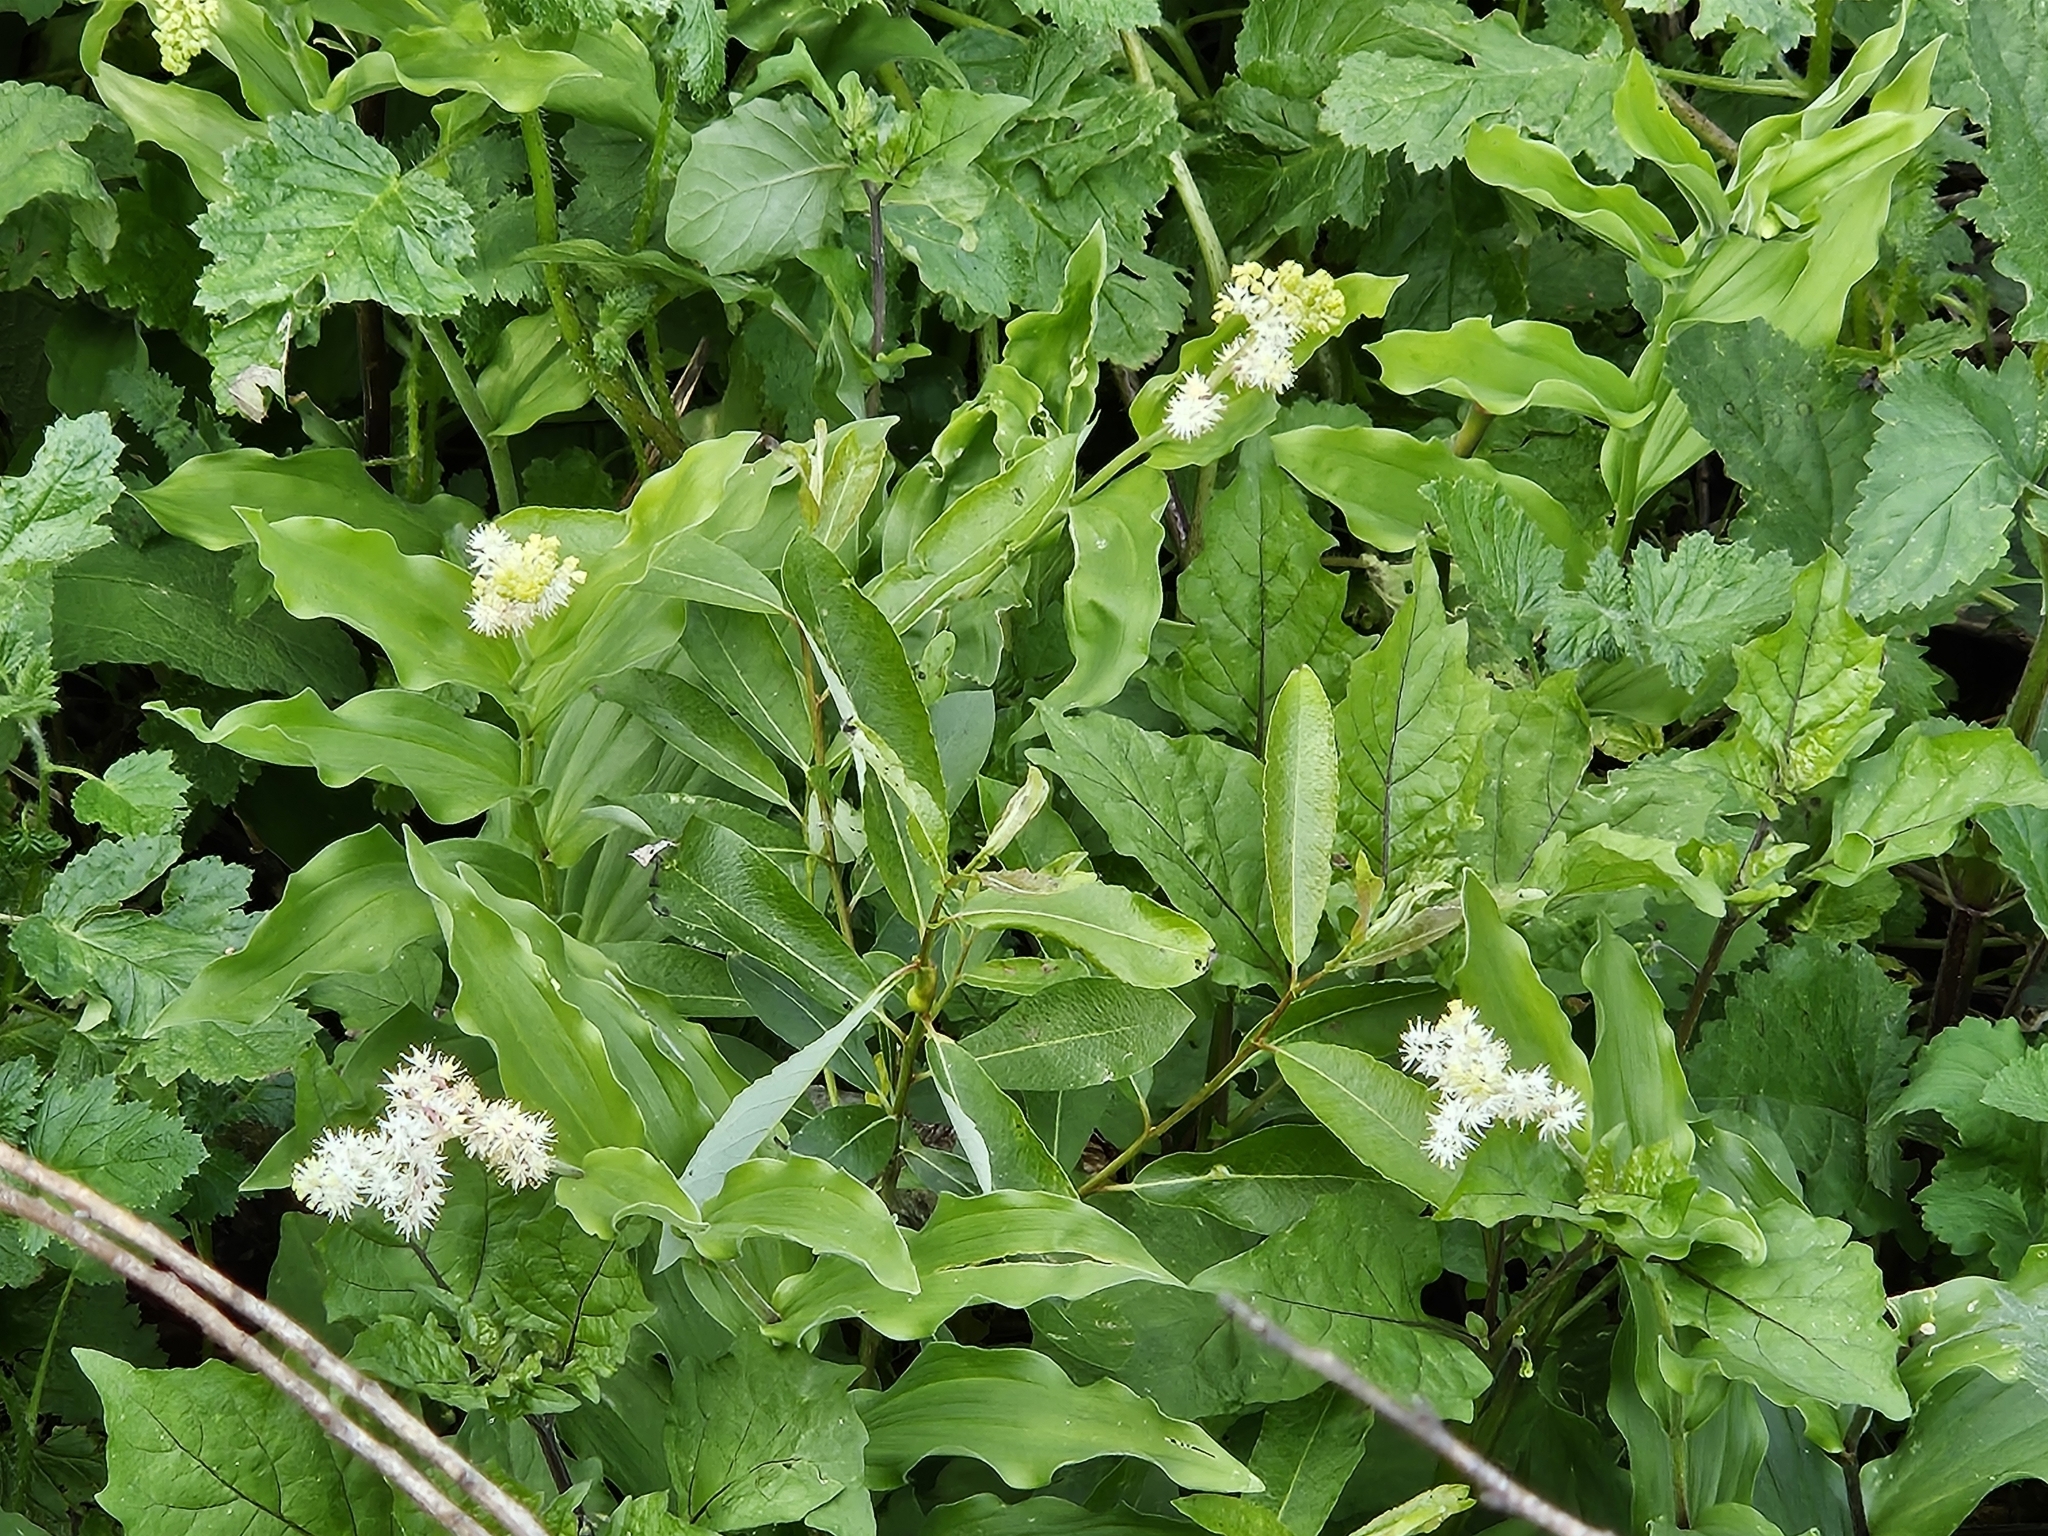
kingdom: Plantae
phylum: Tracheophyta
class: Liliopsida
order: Asparagales
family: Asparagaceae
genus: Maianthemum
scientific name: Maianthemum racemosum
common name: False spikenard
